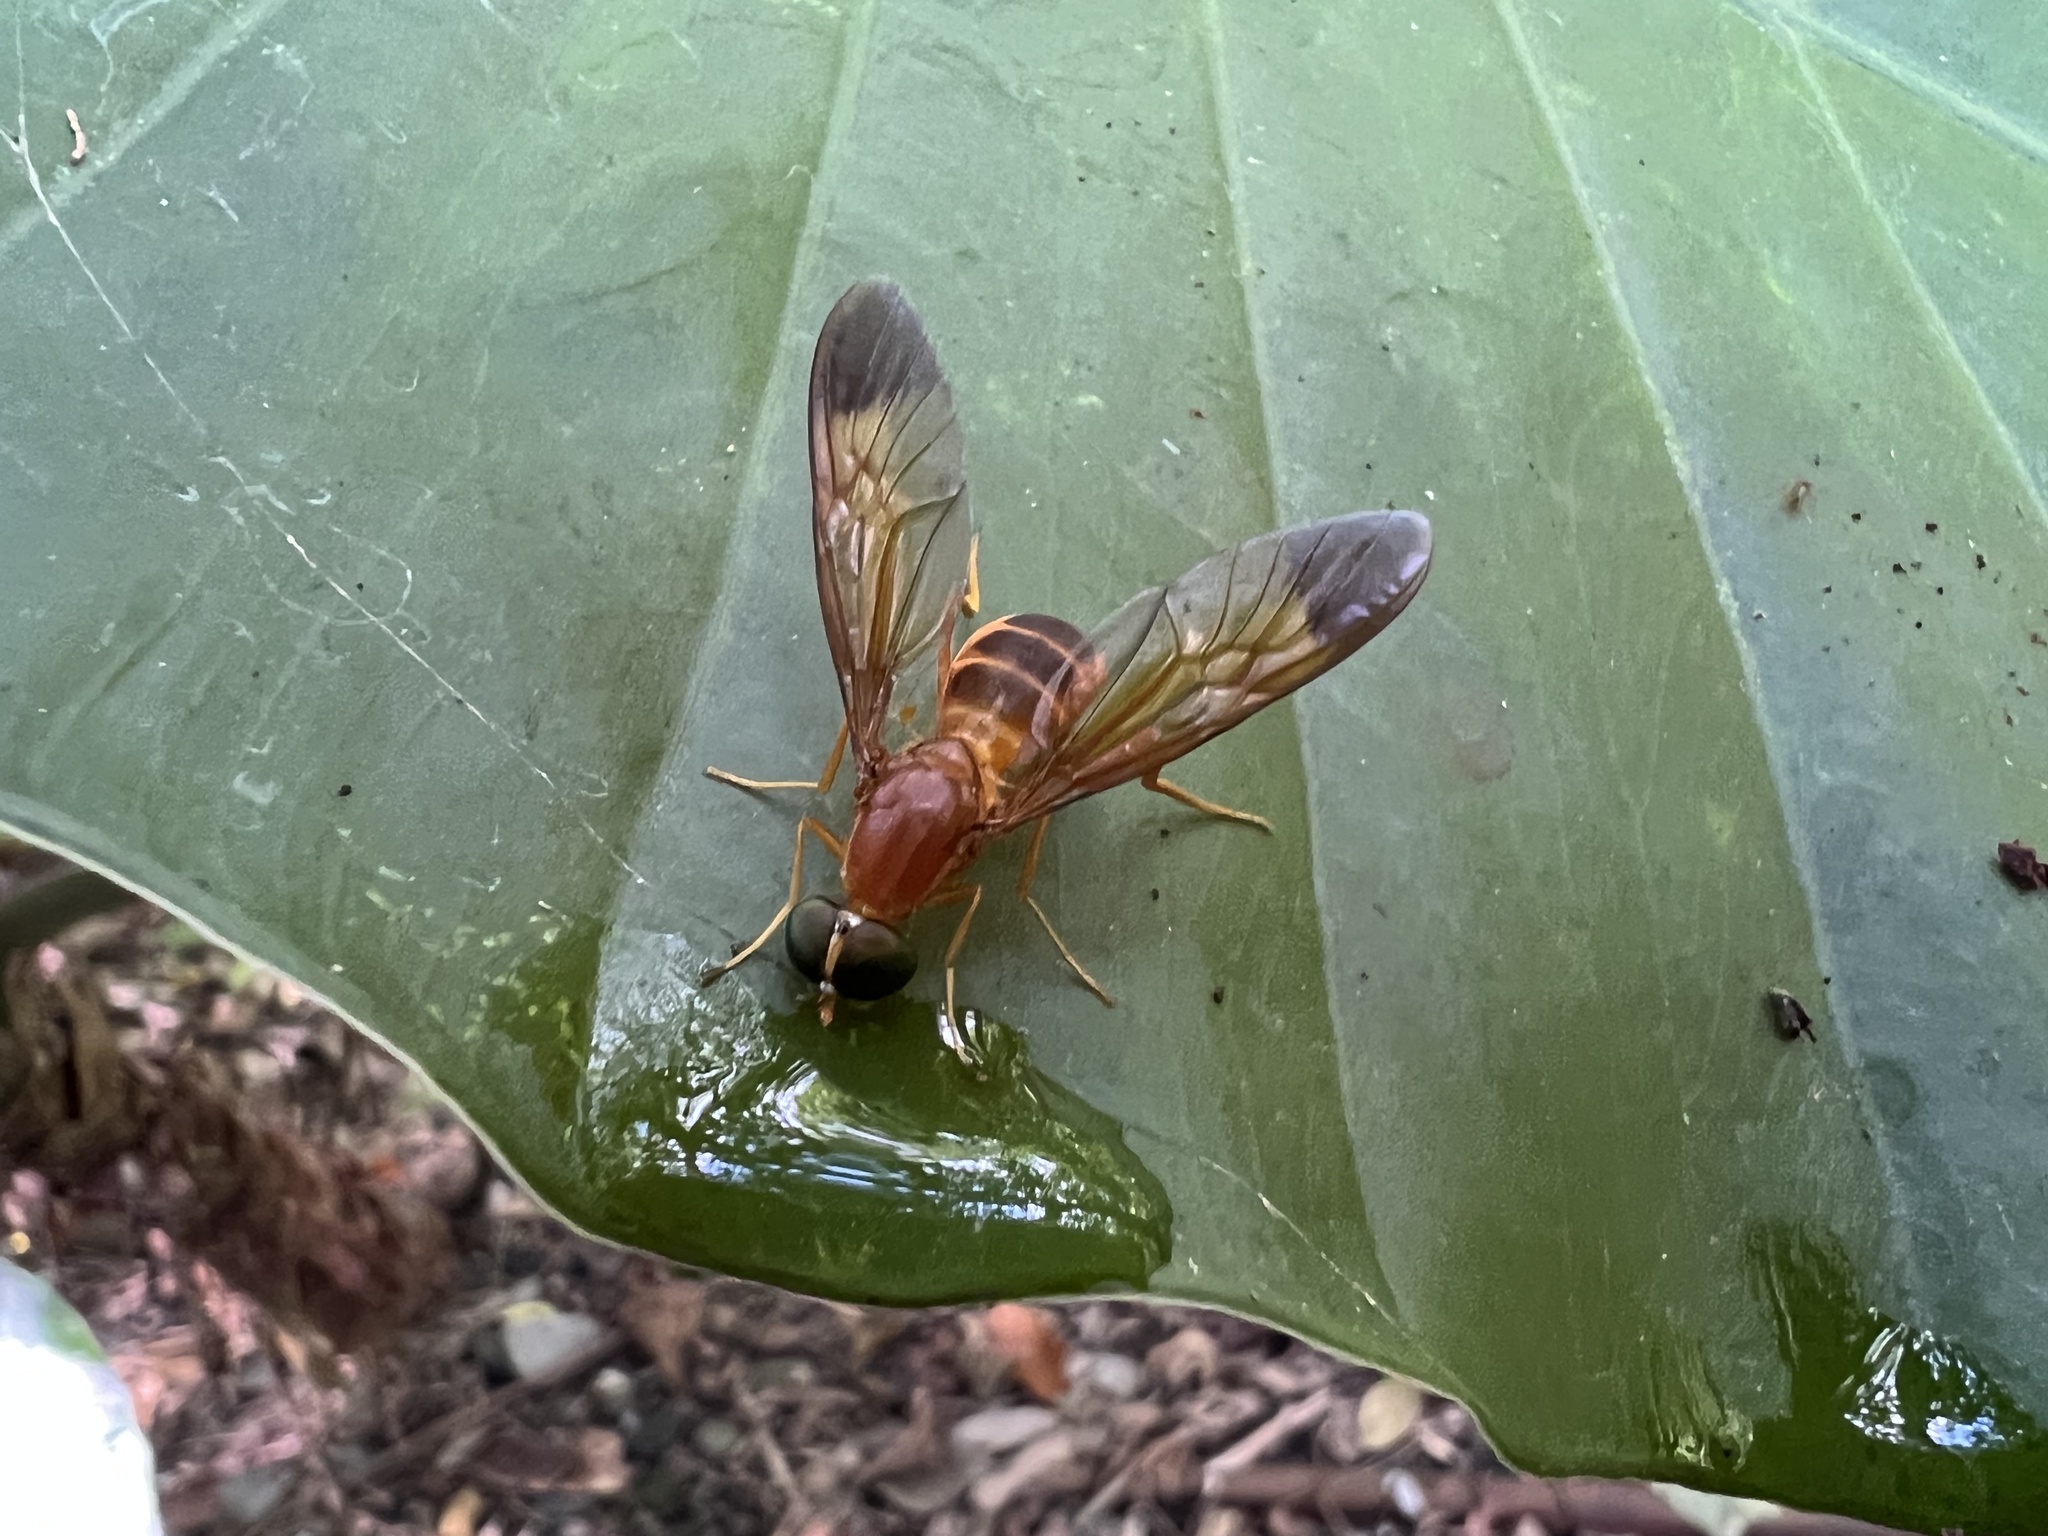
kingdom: Animalia
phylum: Arthropoda
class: Insecta
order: Diptera
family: Stratiomyidae
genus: Ptecticus
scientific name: Ptecticus aurifer
